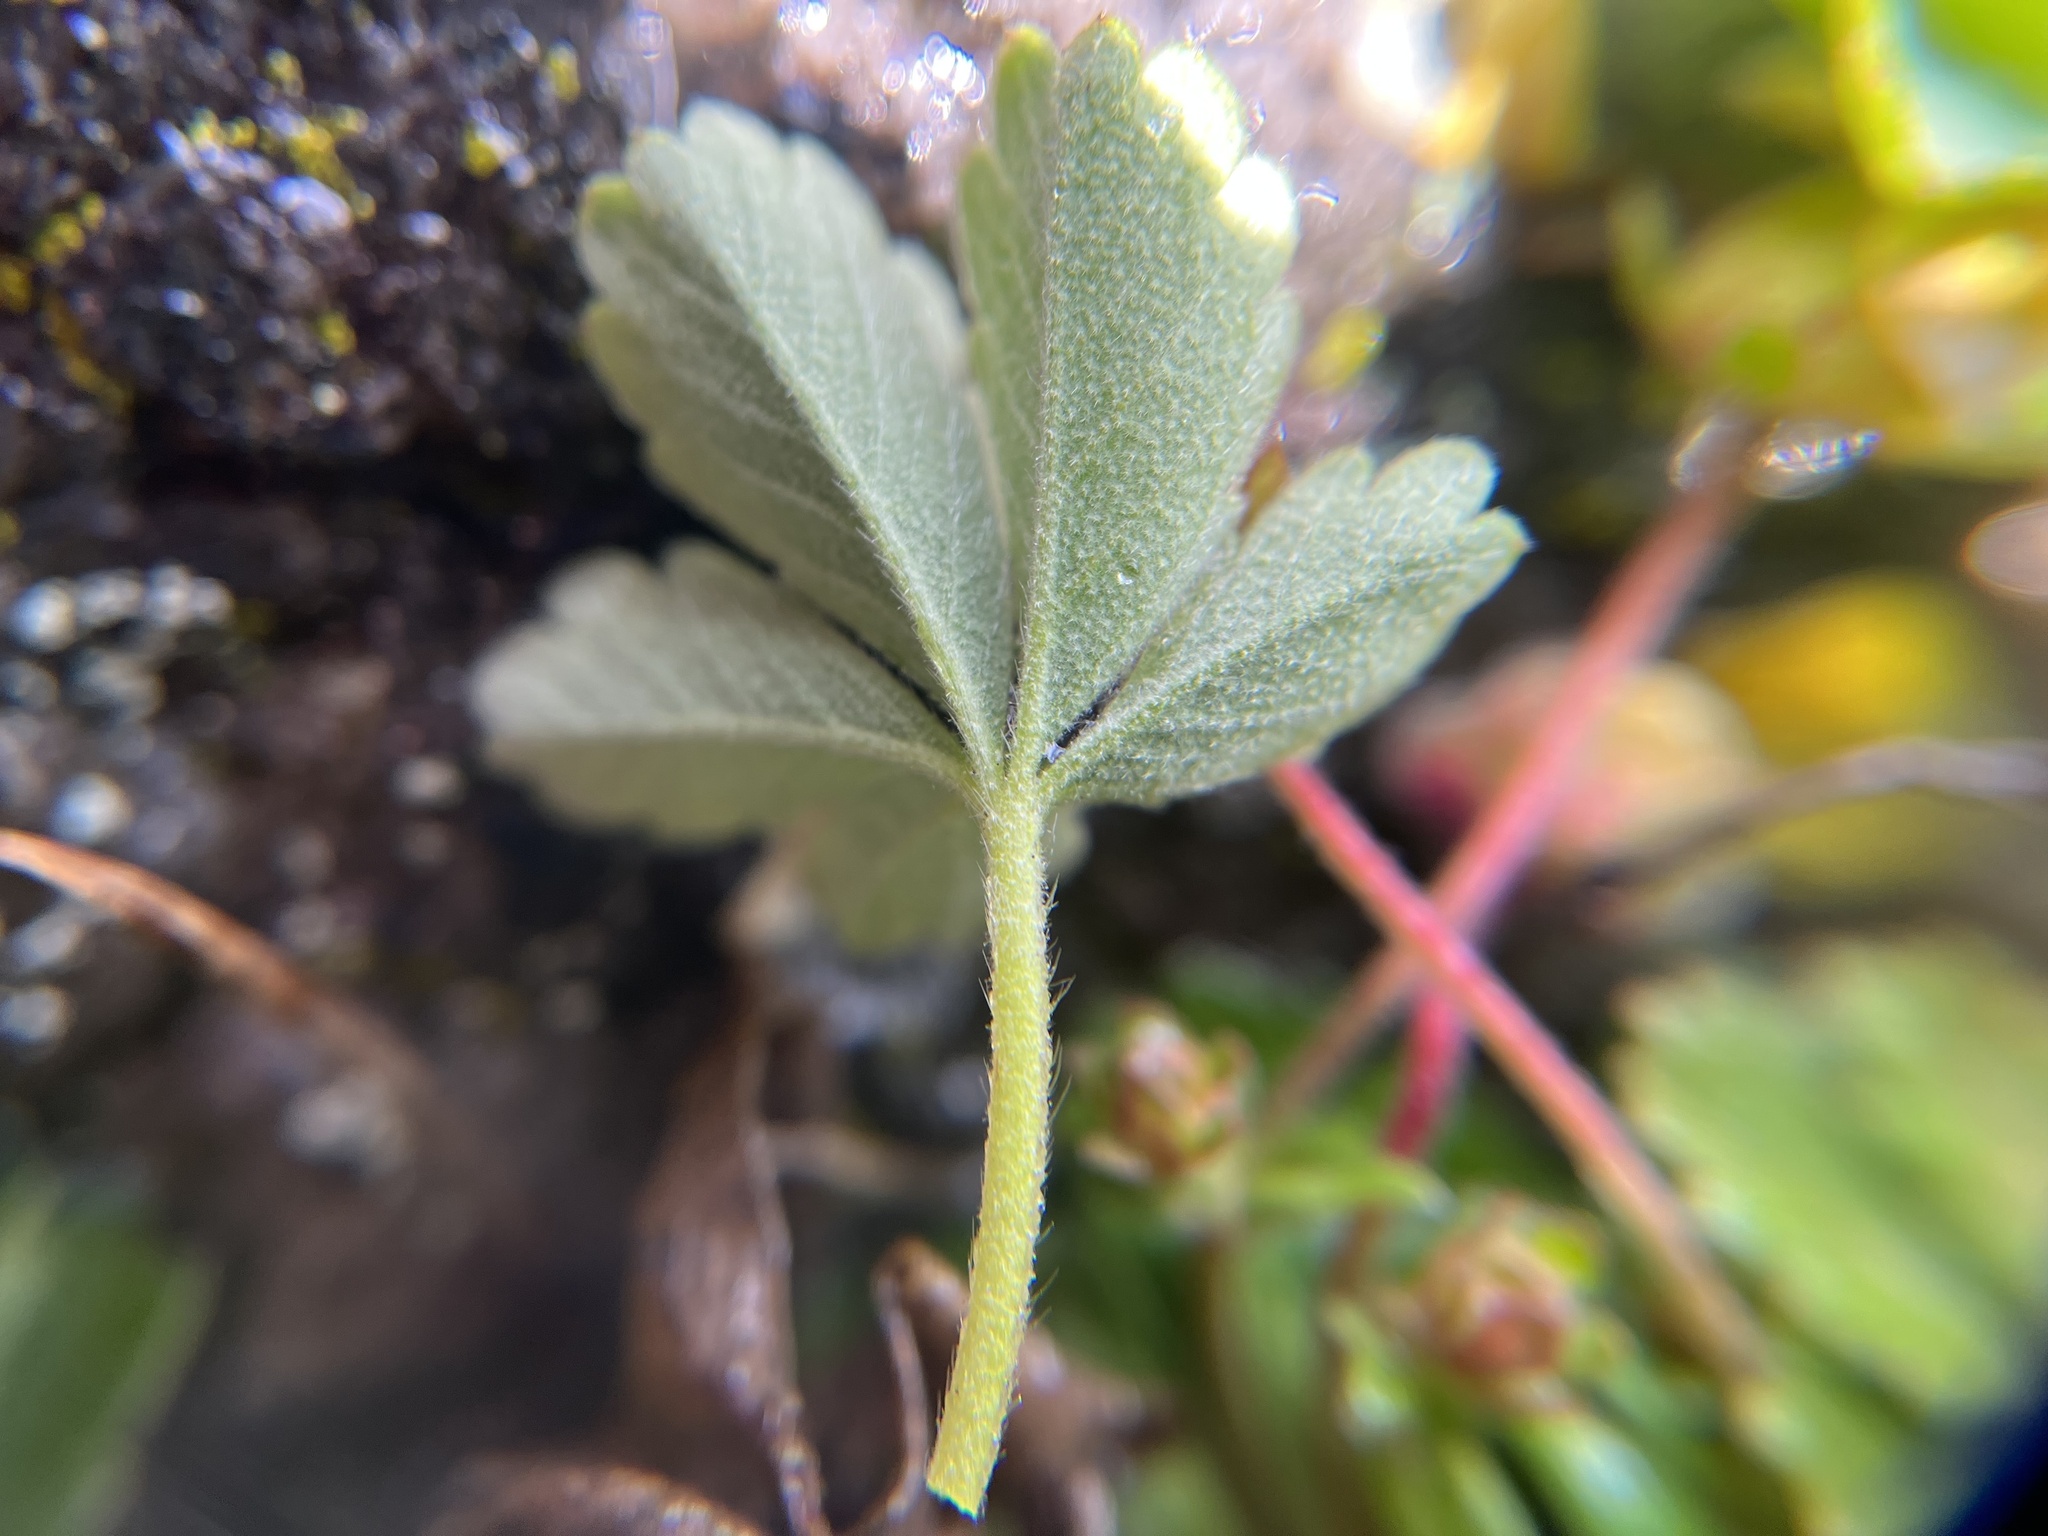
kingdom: Plantae
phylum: Tracheophyta
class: Magnoliopsida
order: Rosales
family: Rosaceae
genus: Potentilla
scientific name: Potentilla incana
